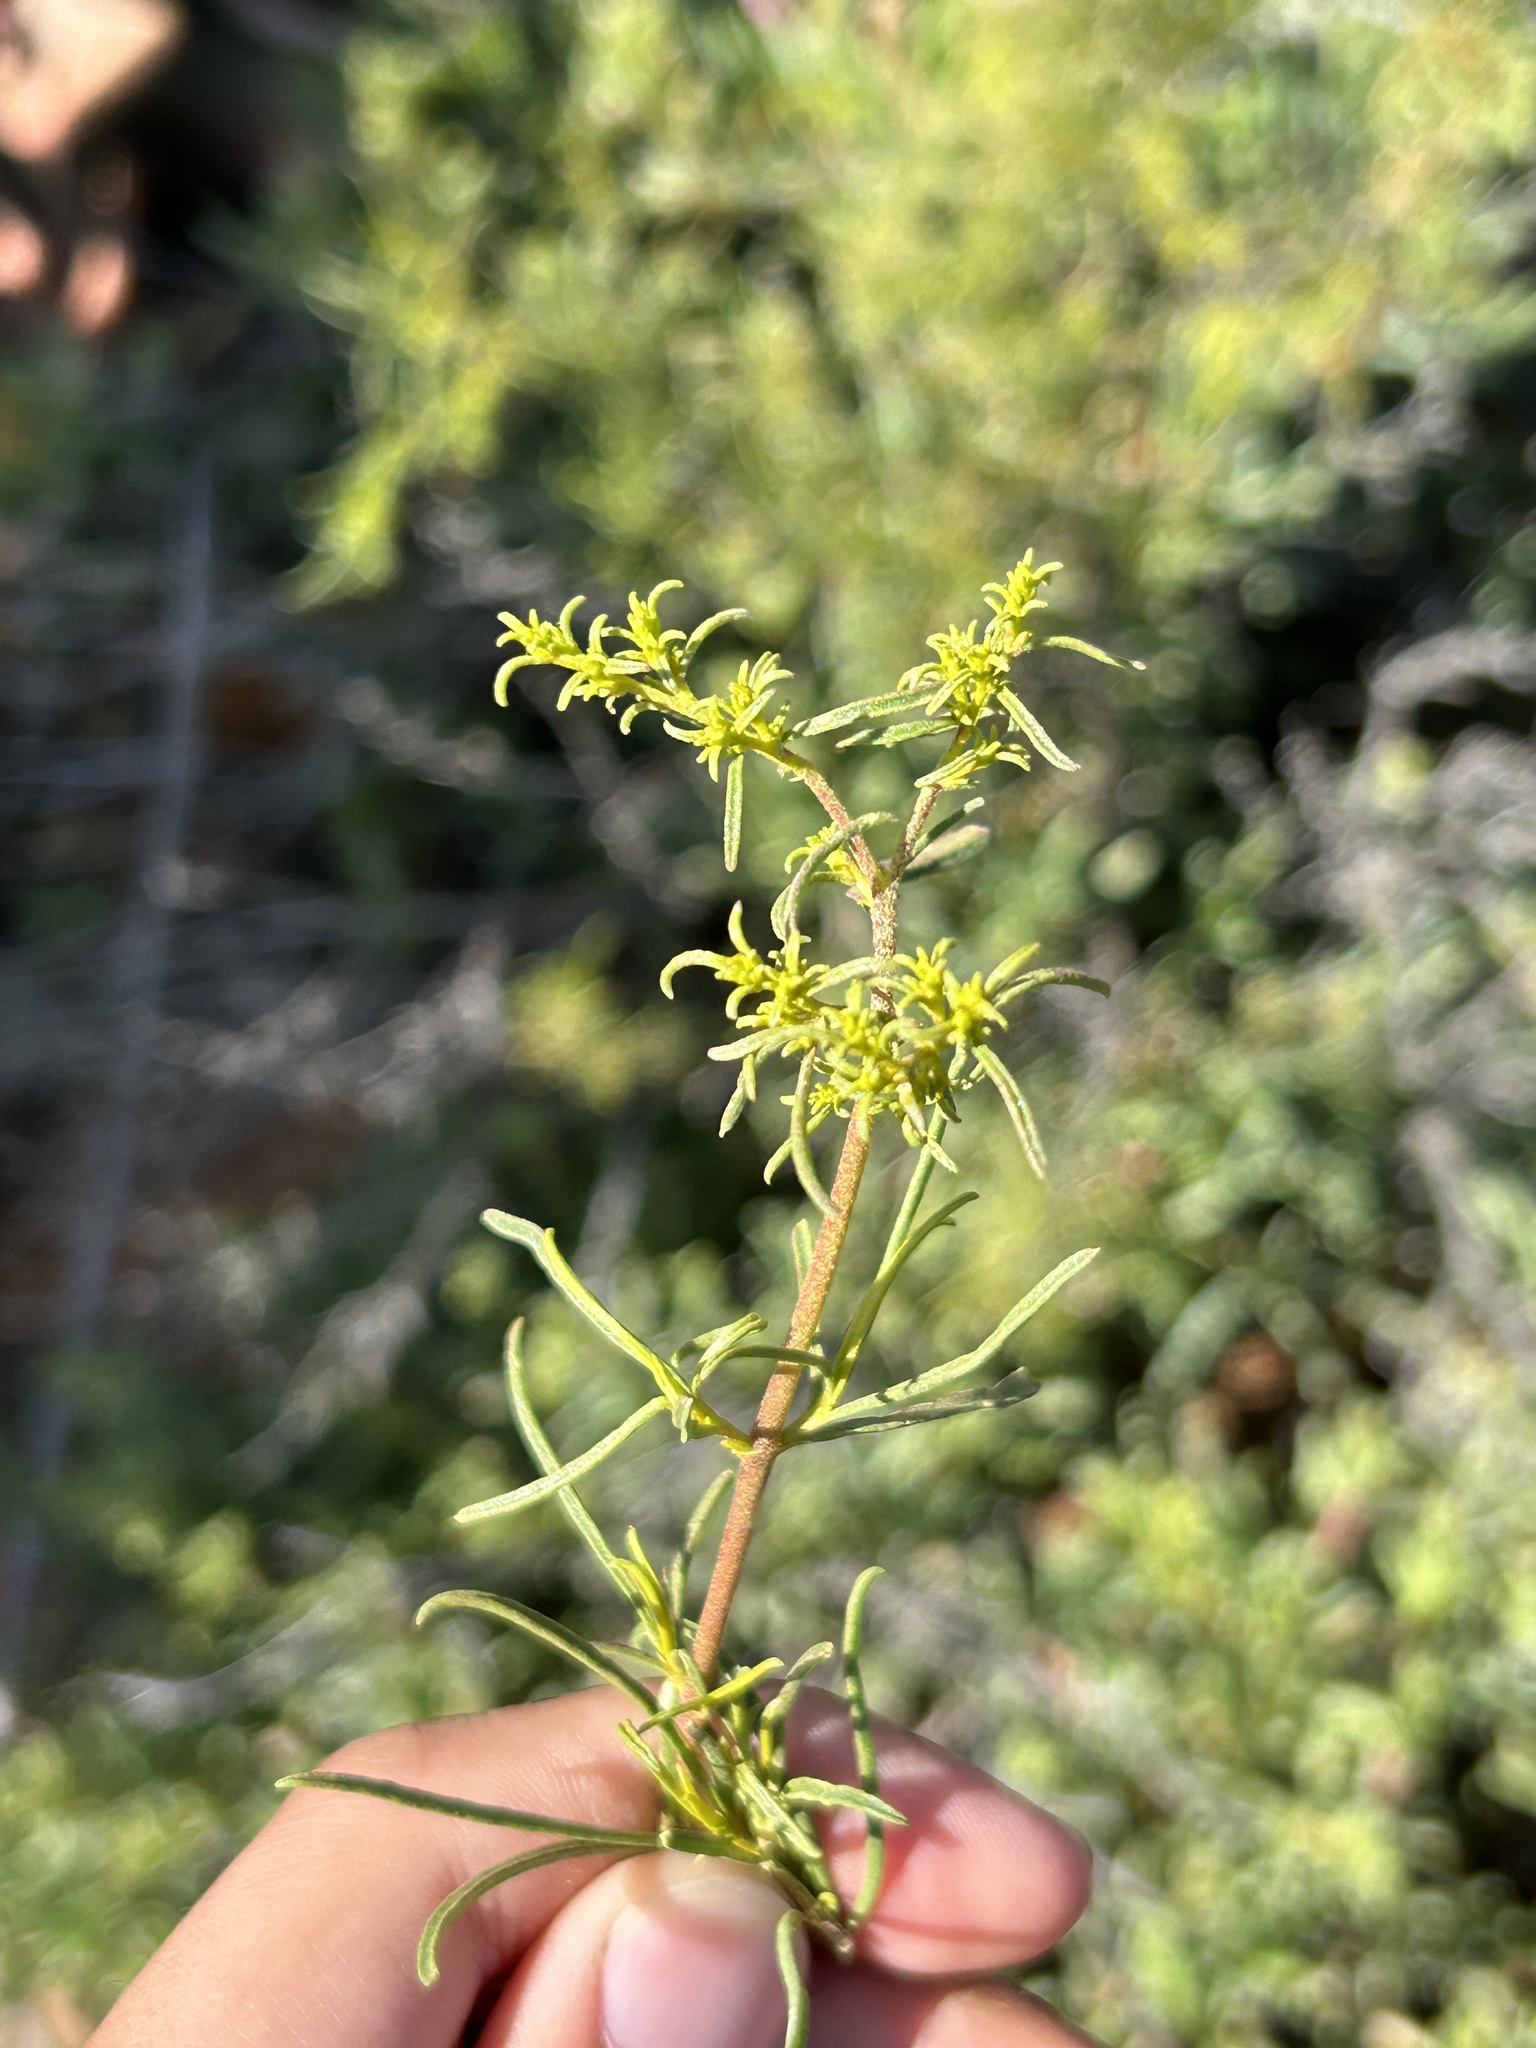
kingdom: Plantae
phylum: Tracheophyta
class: Magnoliopsida
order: Caryophyllales
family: Aizoaceae
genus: Aizoon
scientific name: Aizoon africanum
